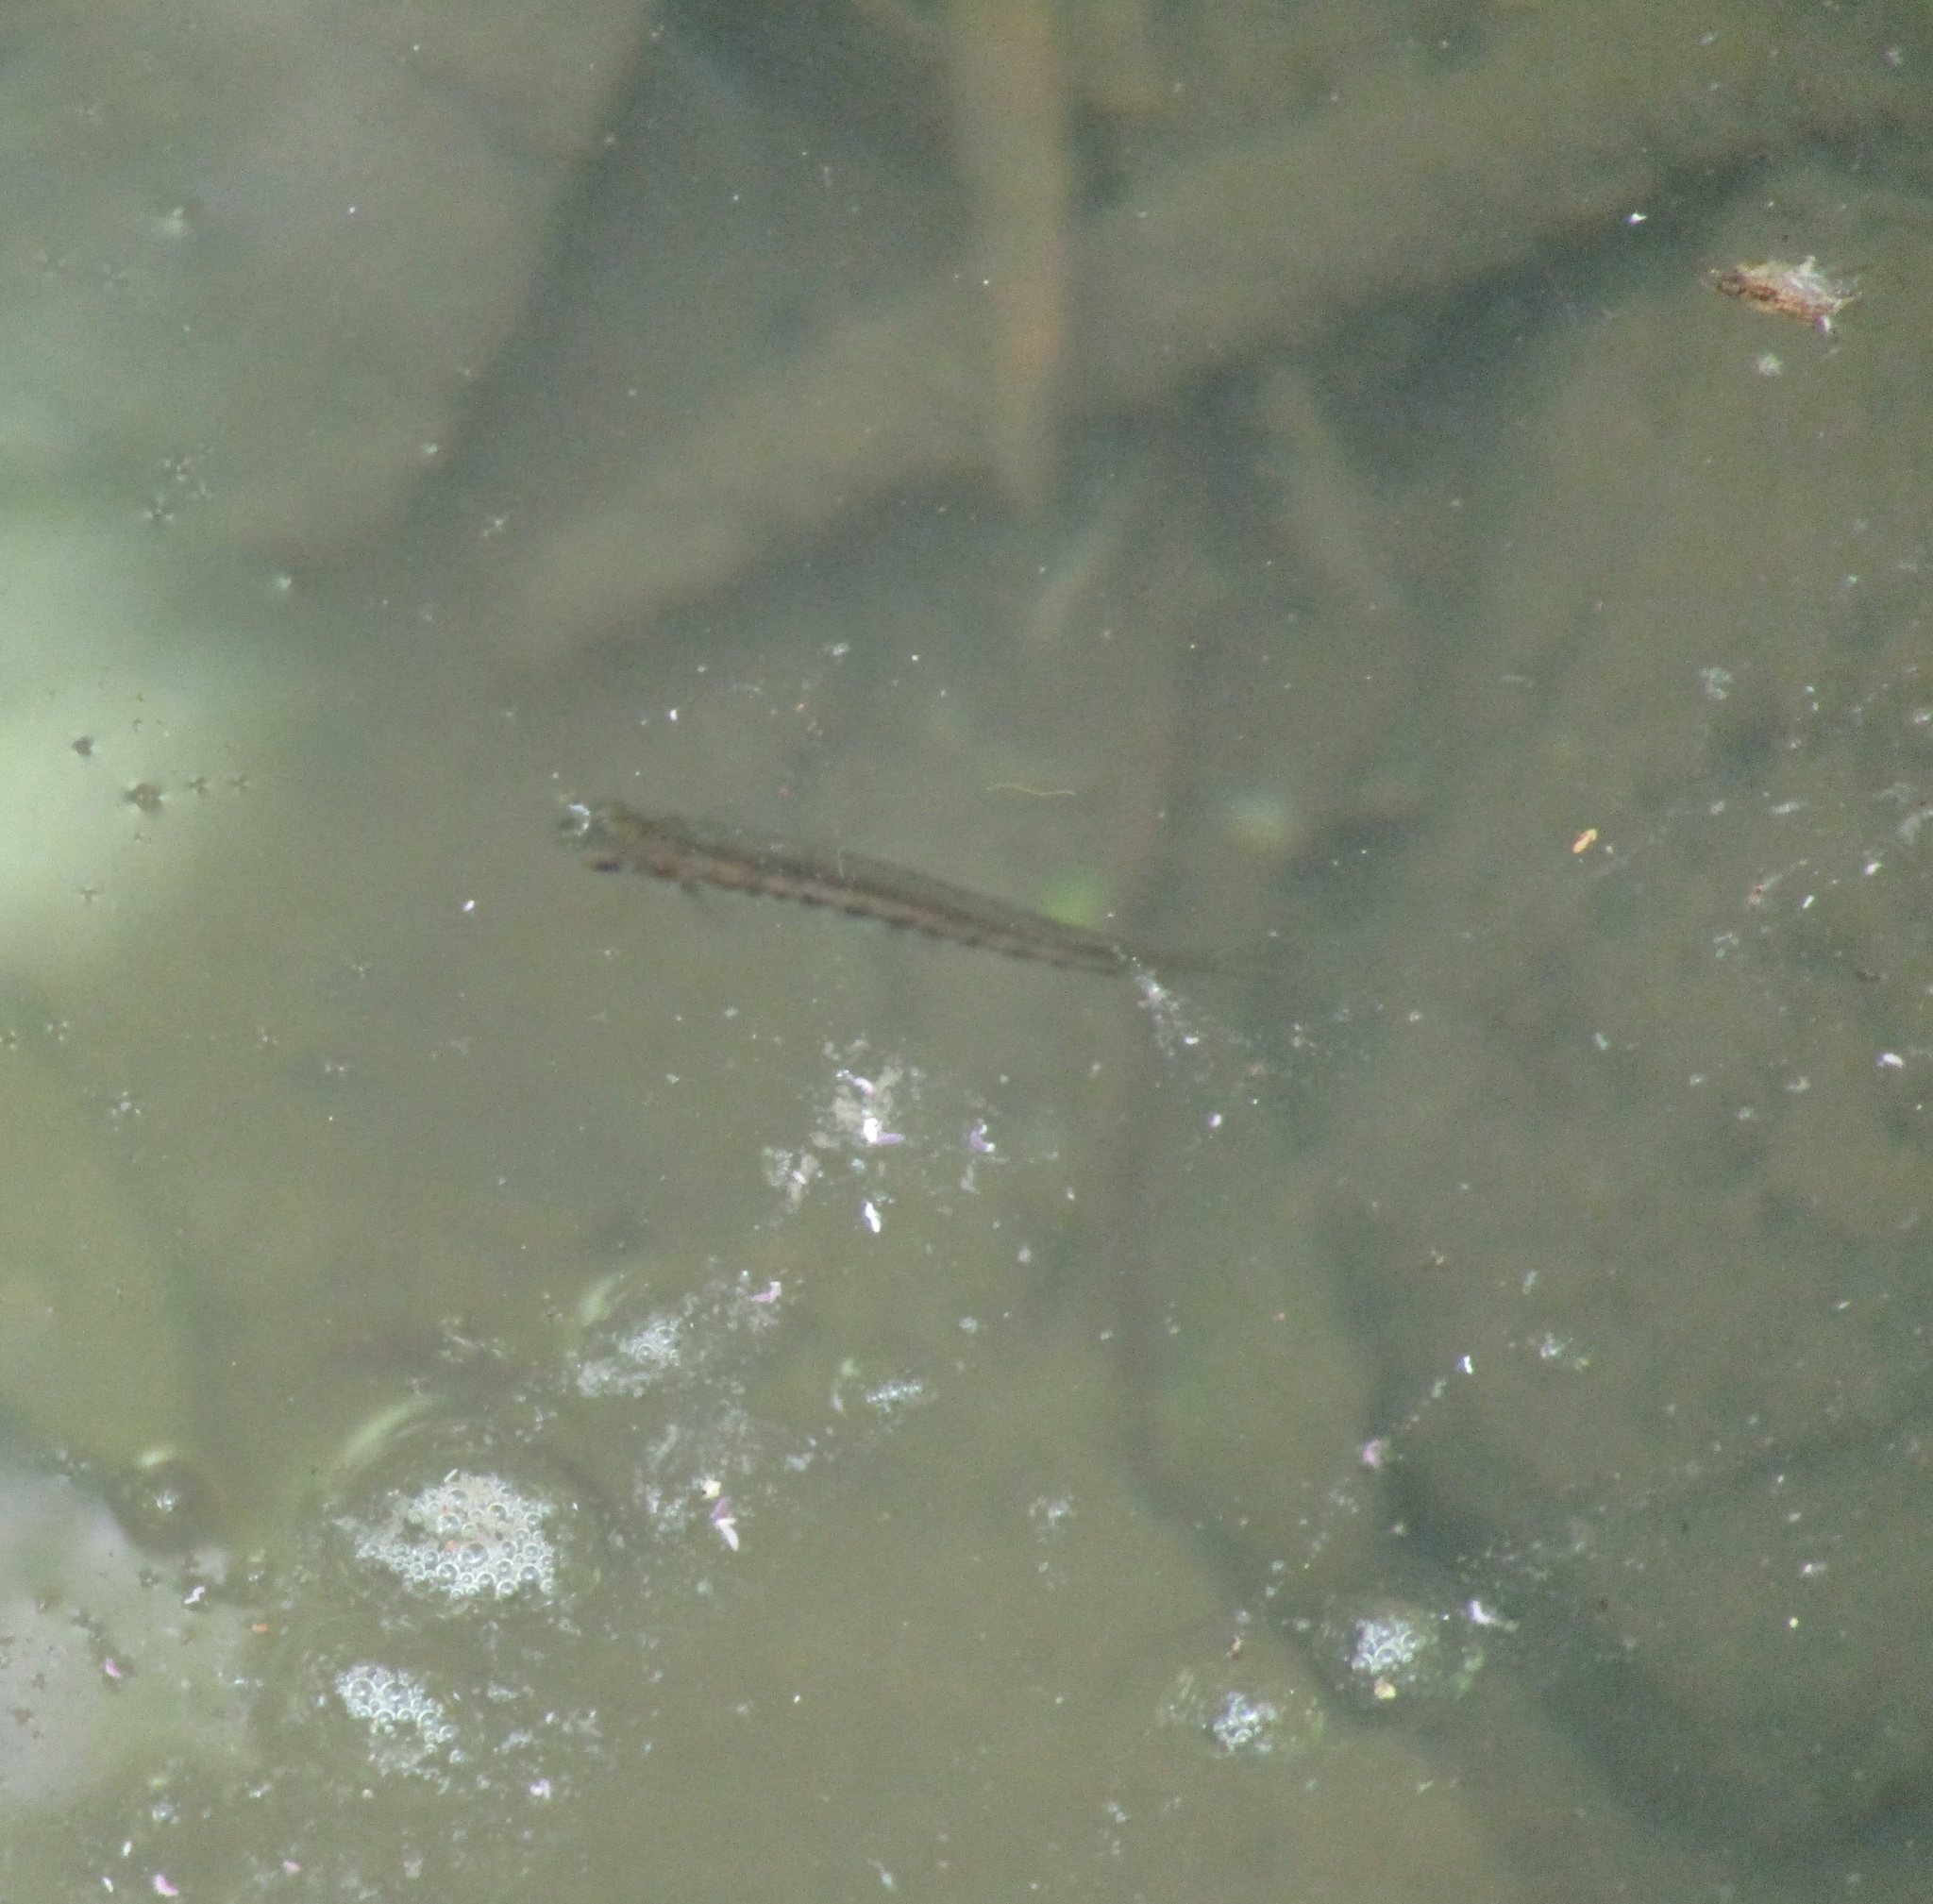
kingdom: Animalia
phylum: Chordata
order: Osmeriformes
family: Galaxiidae
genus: Galaxias
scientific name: Galaxias fasciatus
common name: Banded kokopu
